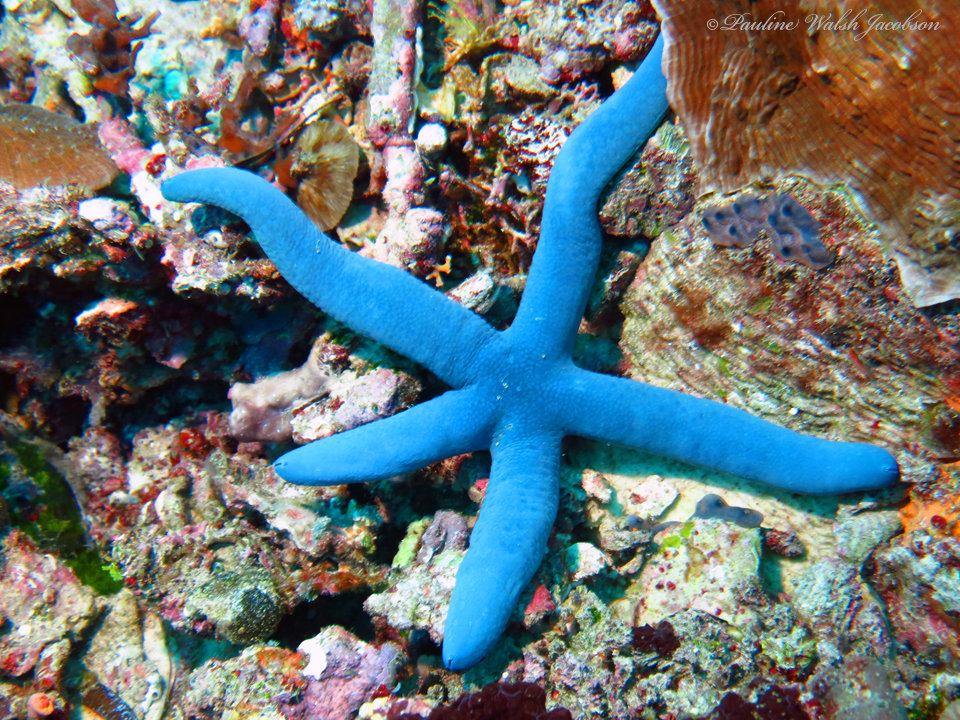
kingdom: Animalia
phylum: Echinodermata
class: Asteroidea
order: Valvatida
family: Ophidiasteridae
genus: Linckia
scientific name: Linckia laevigata
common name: Azure sea star
